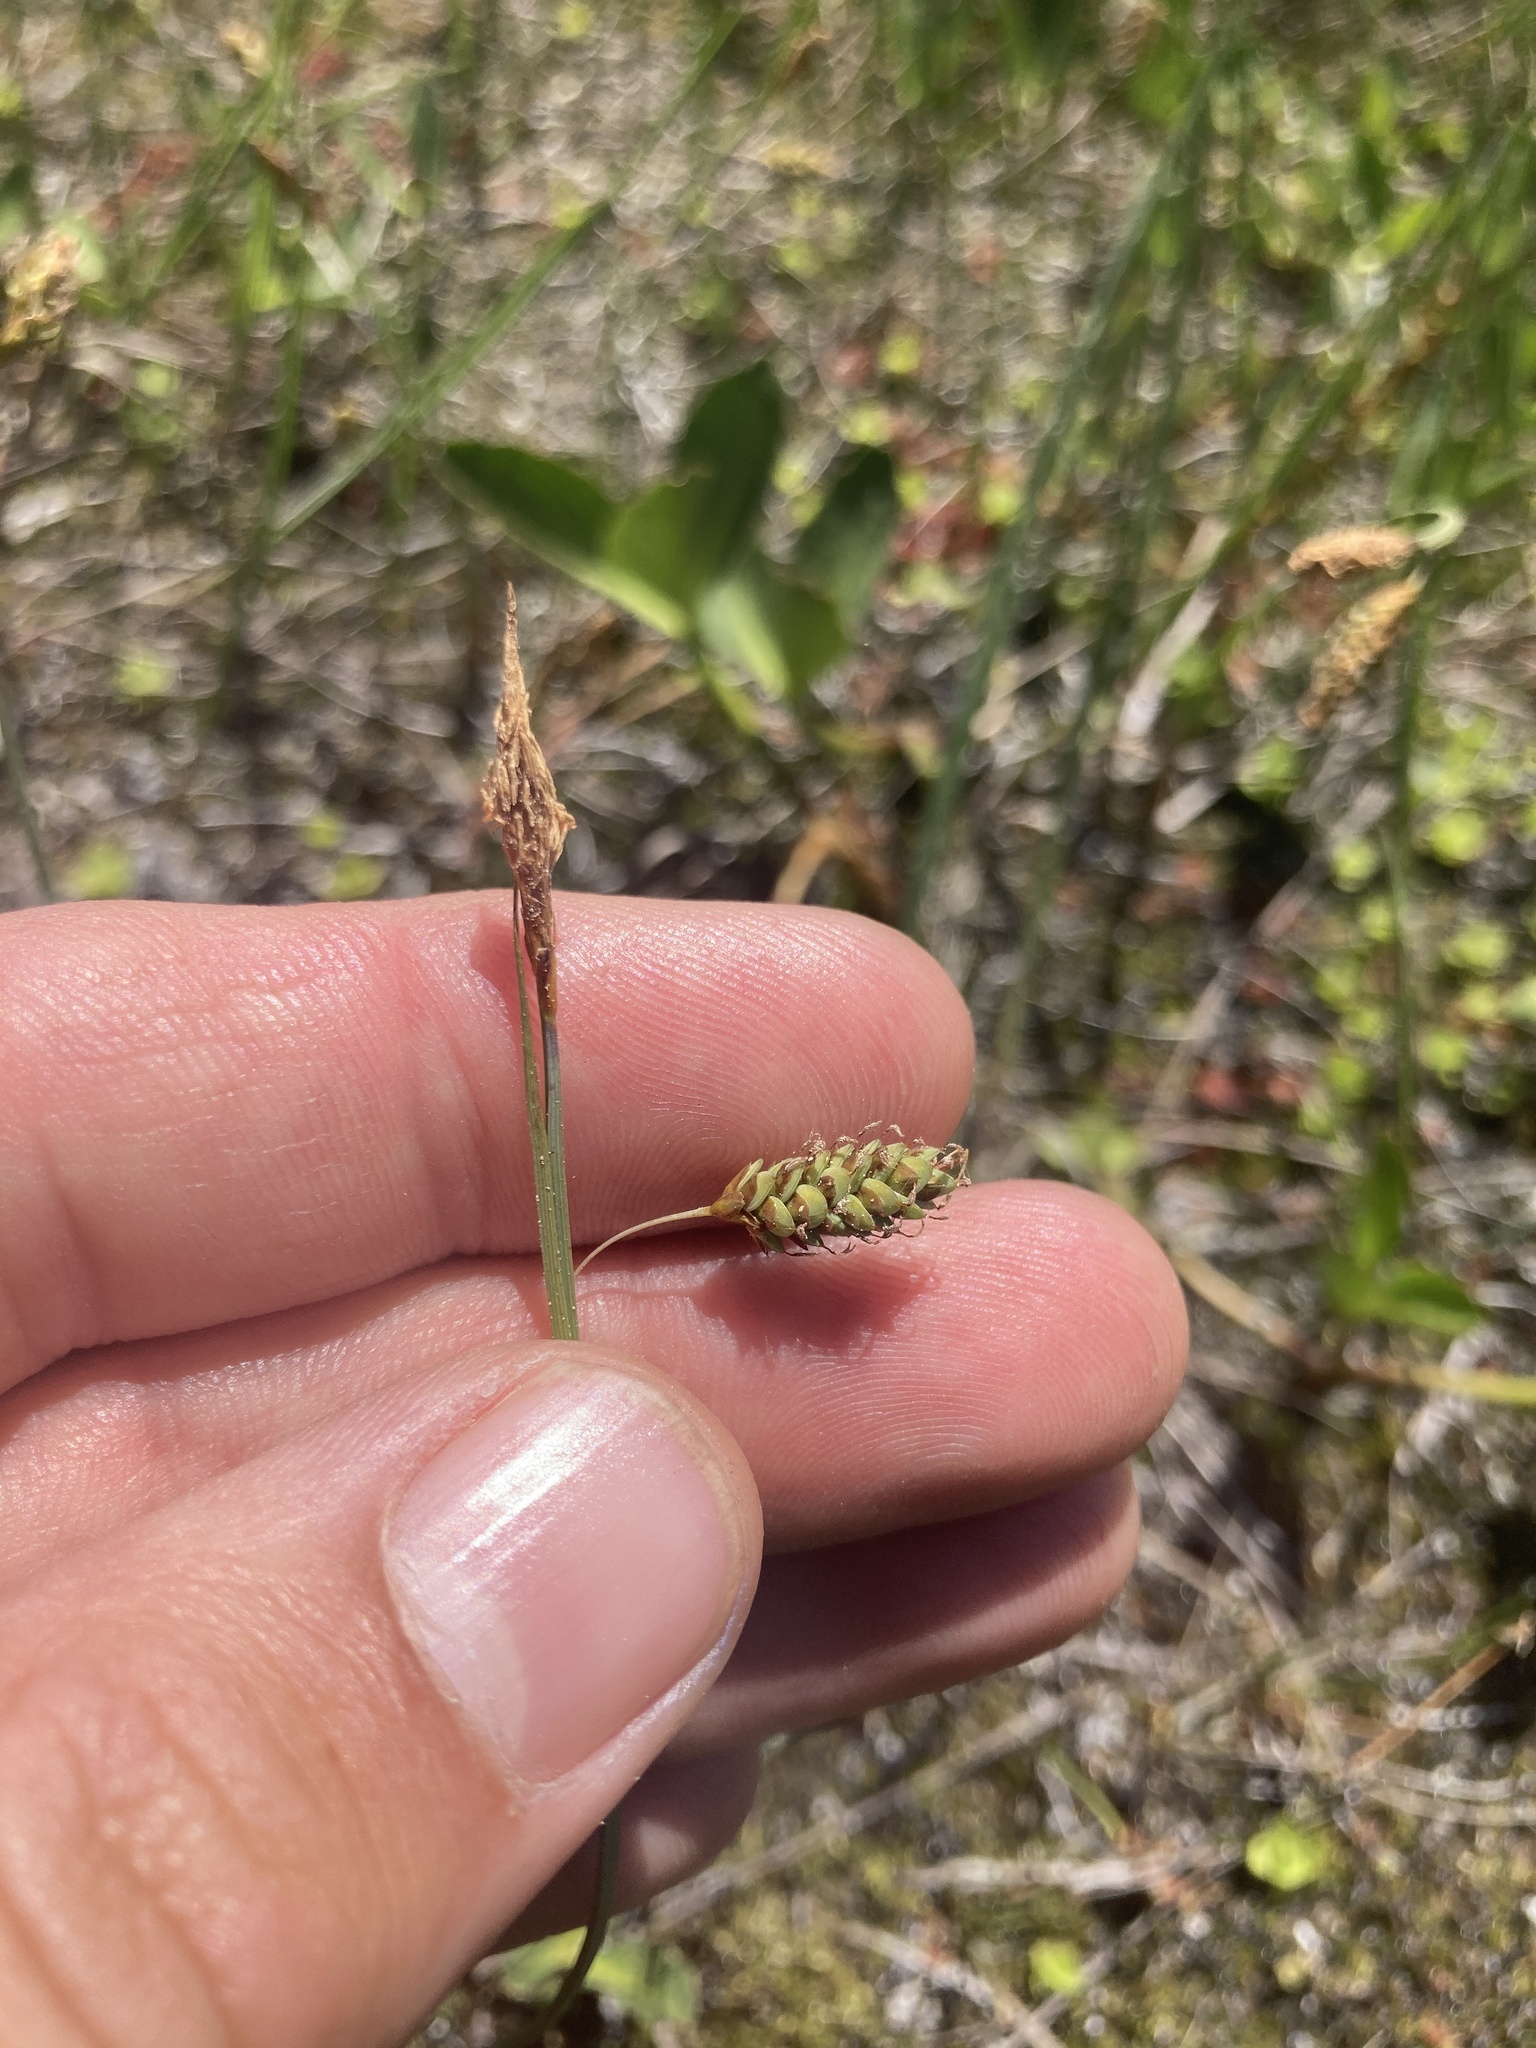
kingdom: Plantae
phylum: Tracheophyta
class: Liliopsida
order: Poales
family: Cyperaceae
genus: Carex
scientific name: Carex limosa
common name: Bog sedge
